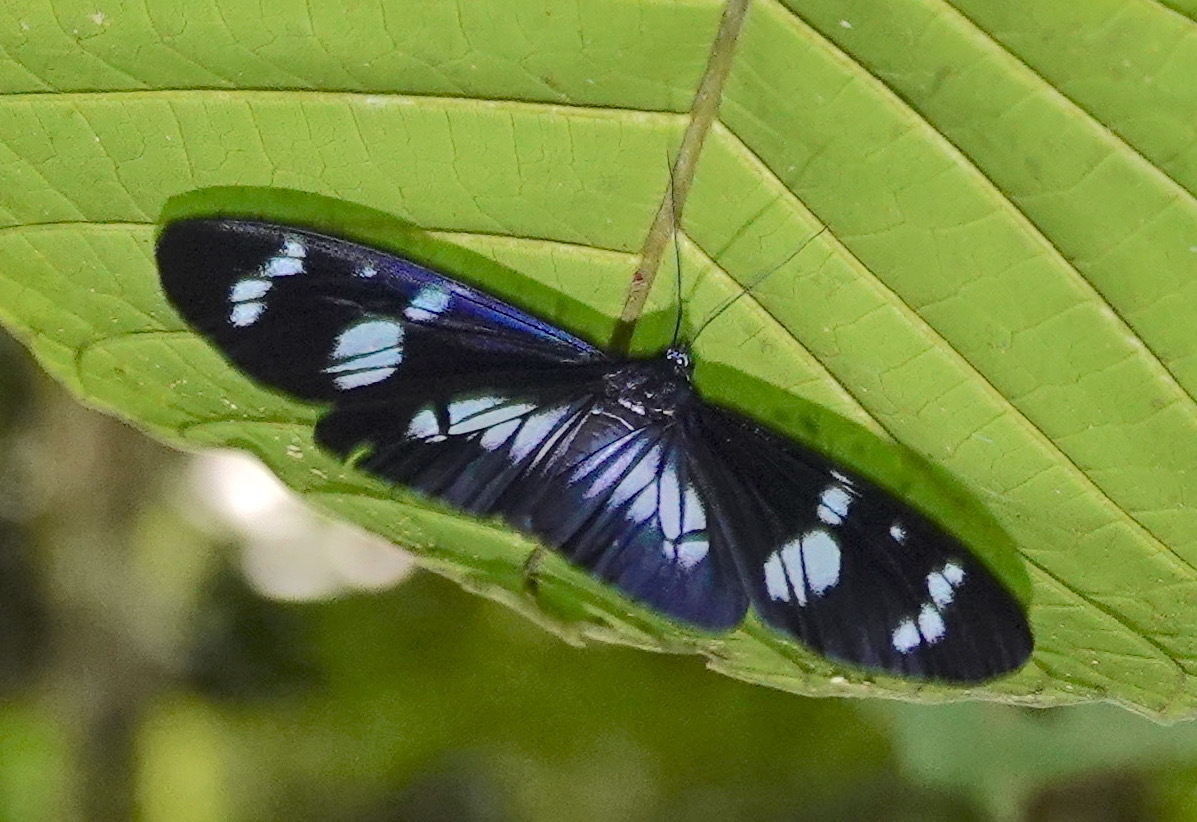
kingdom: Animalia
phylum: Arthropoda
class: Insecta
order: Lepidoptera
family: Erebidae
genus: Hypocrita
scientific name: Hypocrita plagifera
